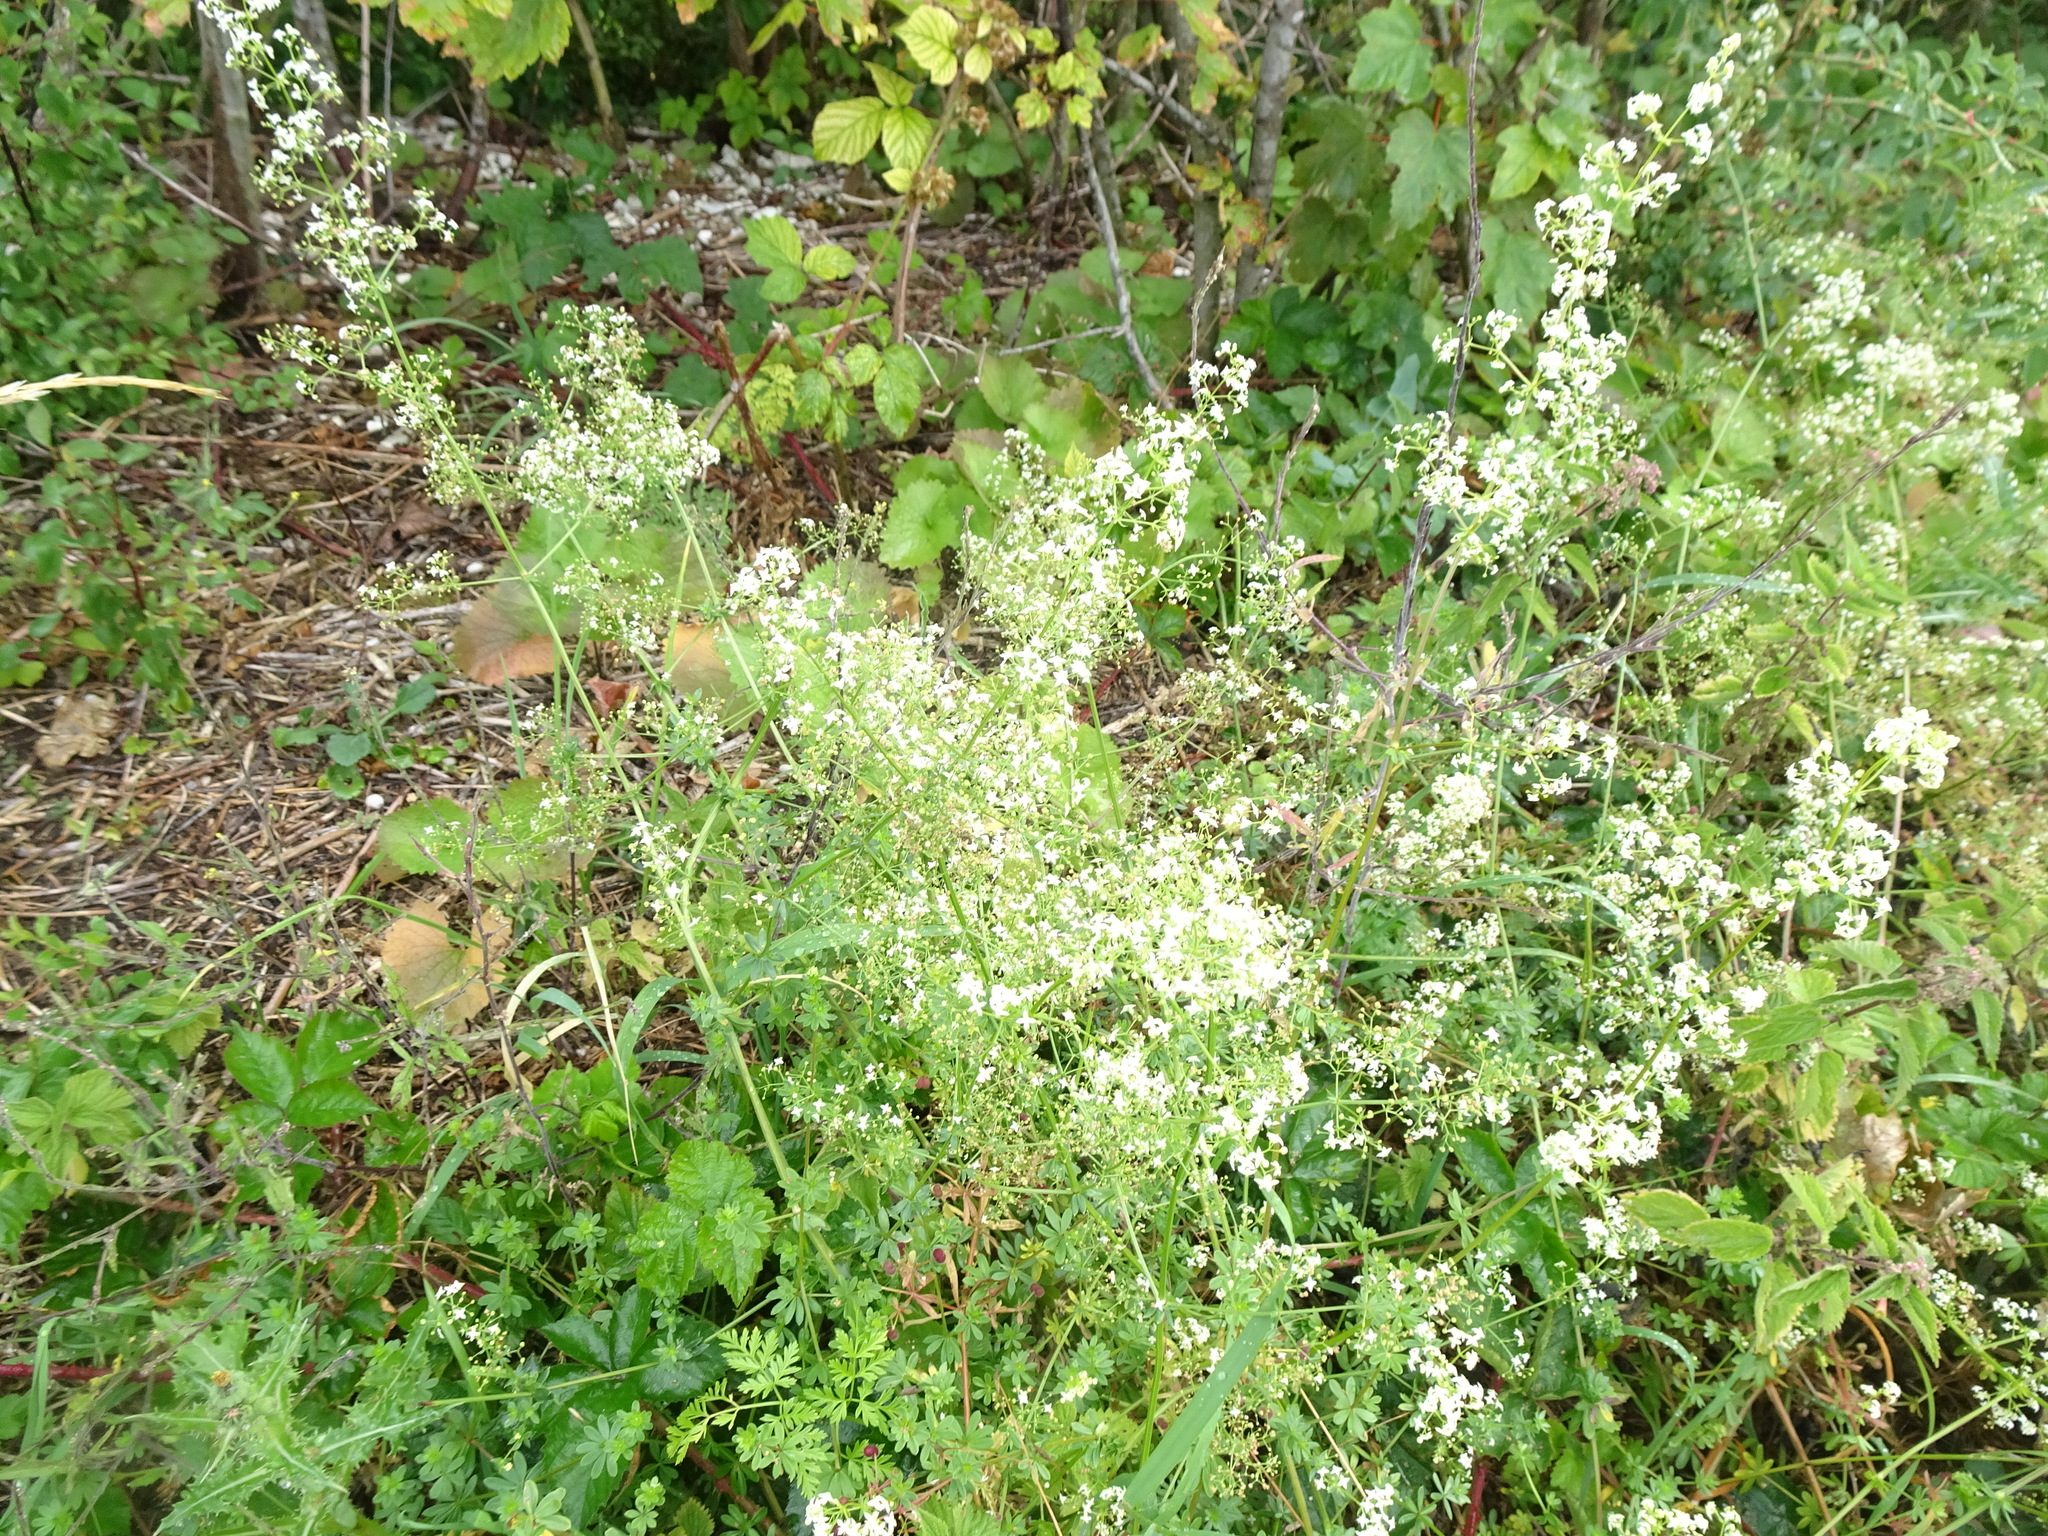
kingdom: Plantae
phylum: Tracheophyta
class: Magnoliopsida
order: Gentianales
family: Rubiaceae
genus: Galium
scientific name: Galium mollugo
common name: Hedge bedstraw
